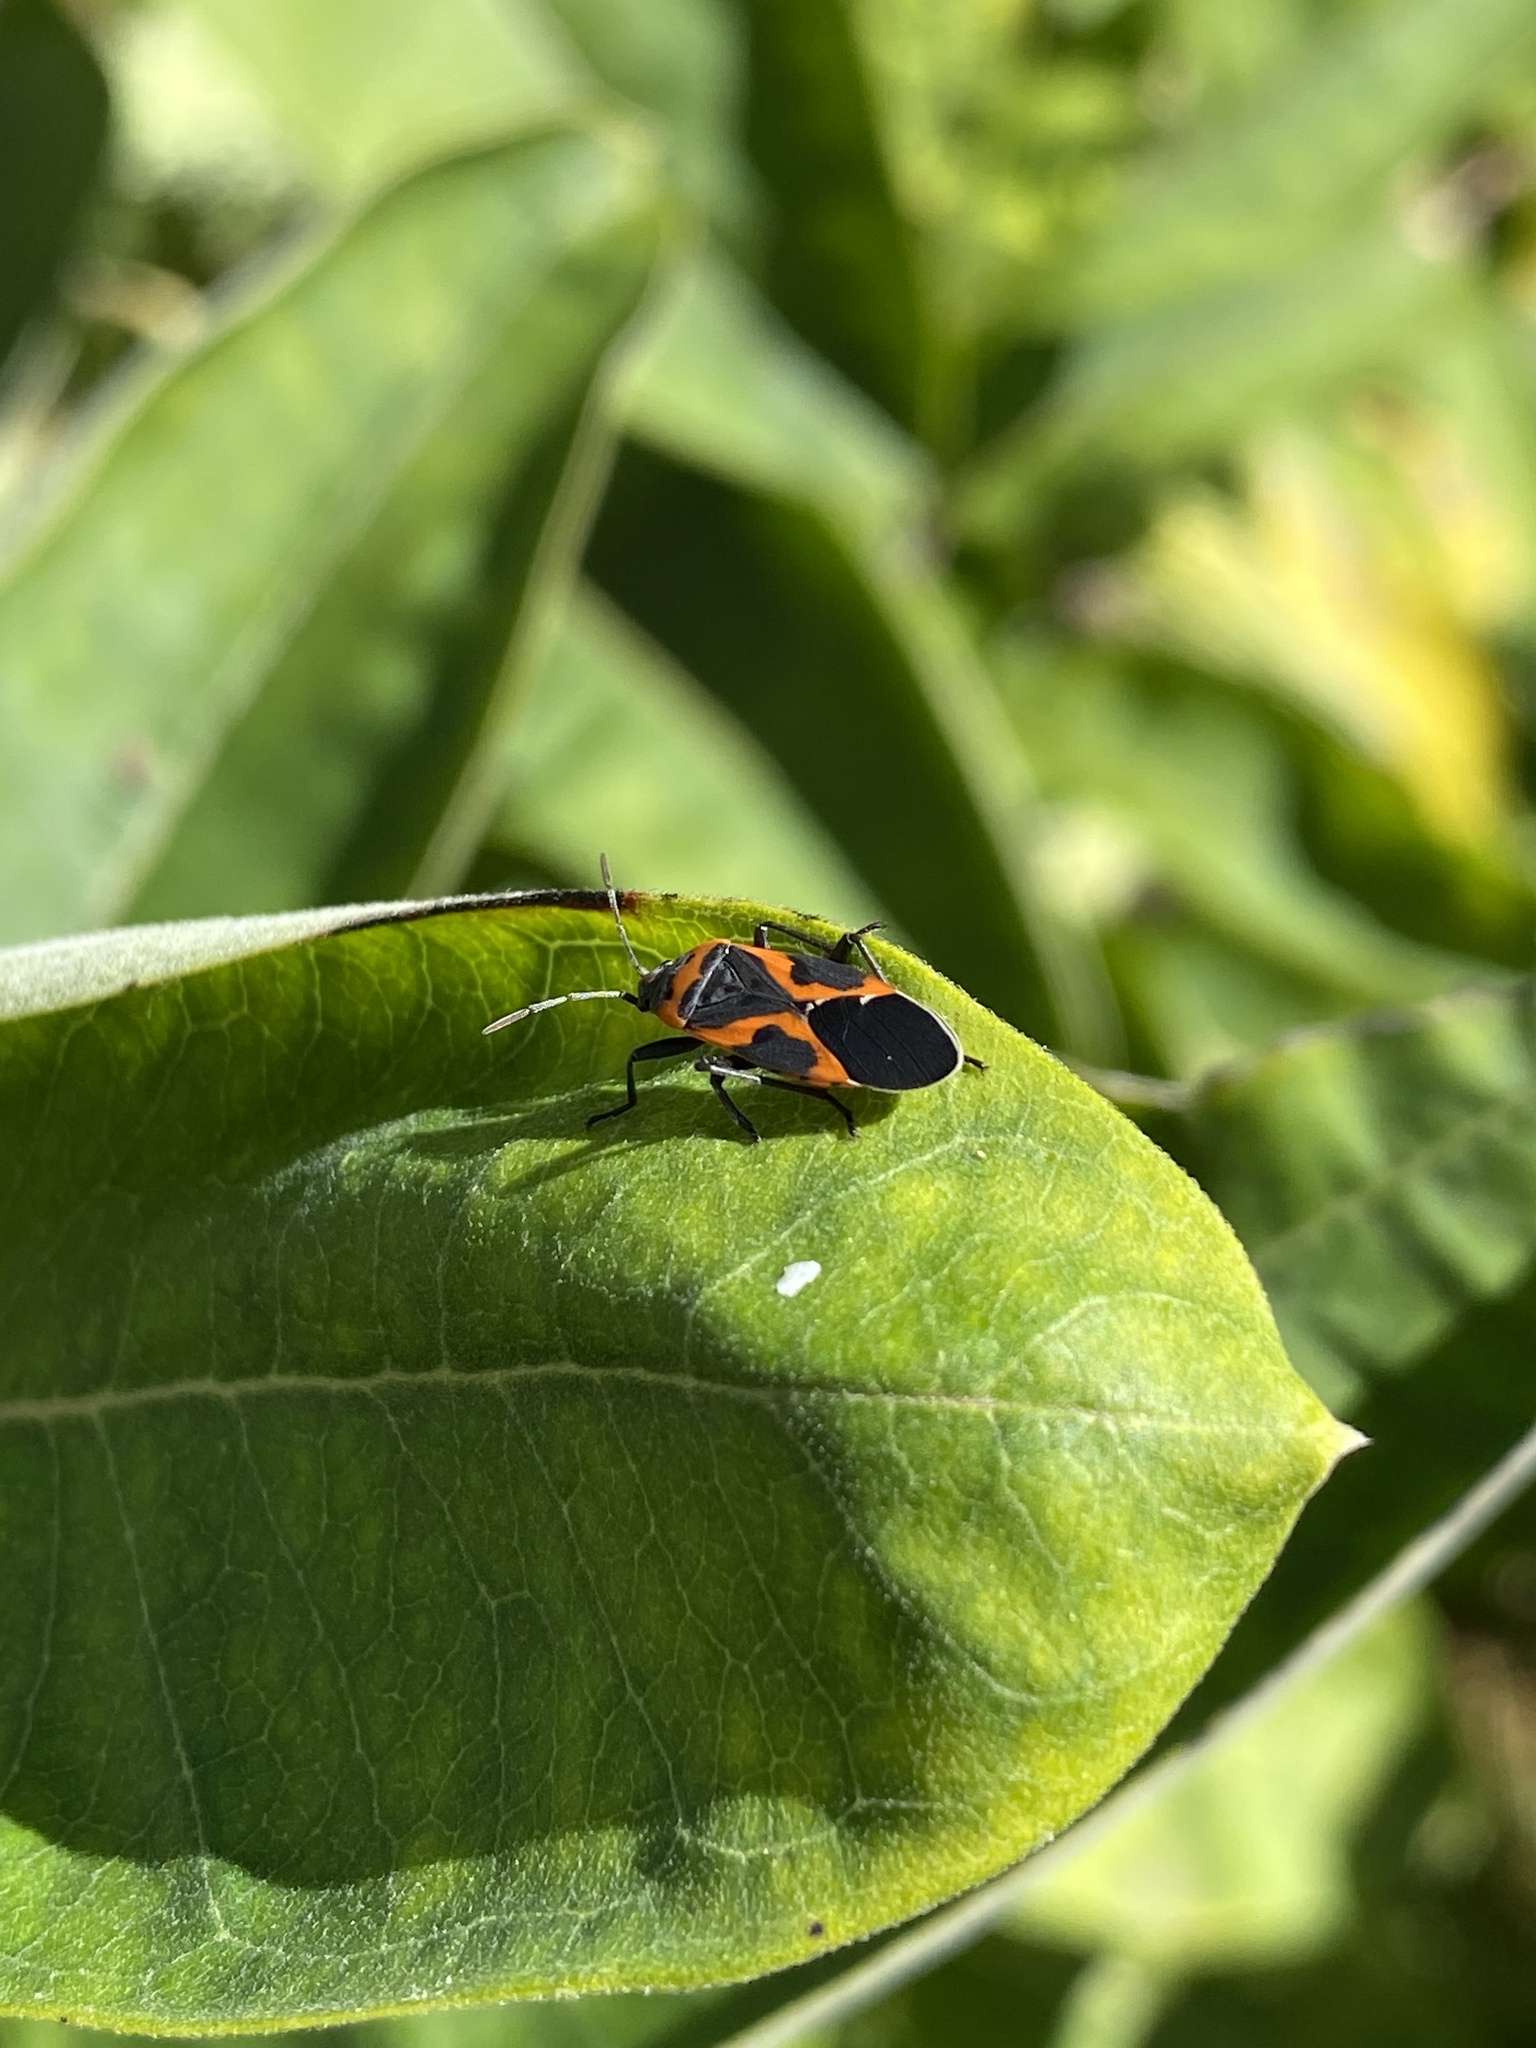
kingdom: Animalia
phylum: Arthropoda
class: Insecta
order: Hemiptera
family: Lygaeidae
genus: Lygaeus
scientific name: Lygaeus kalmii
